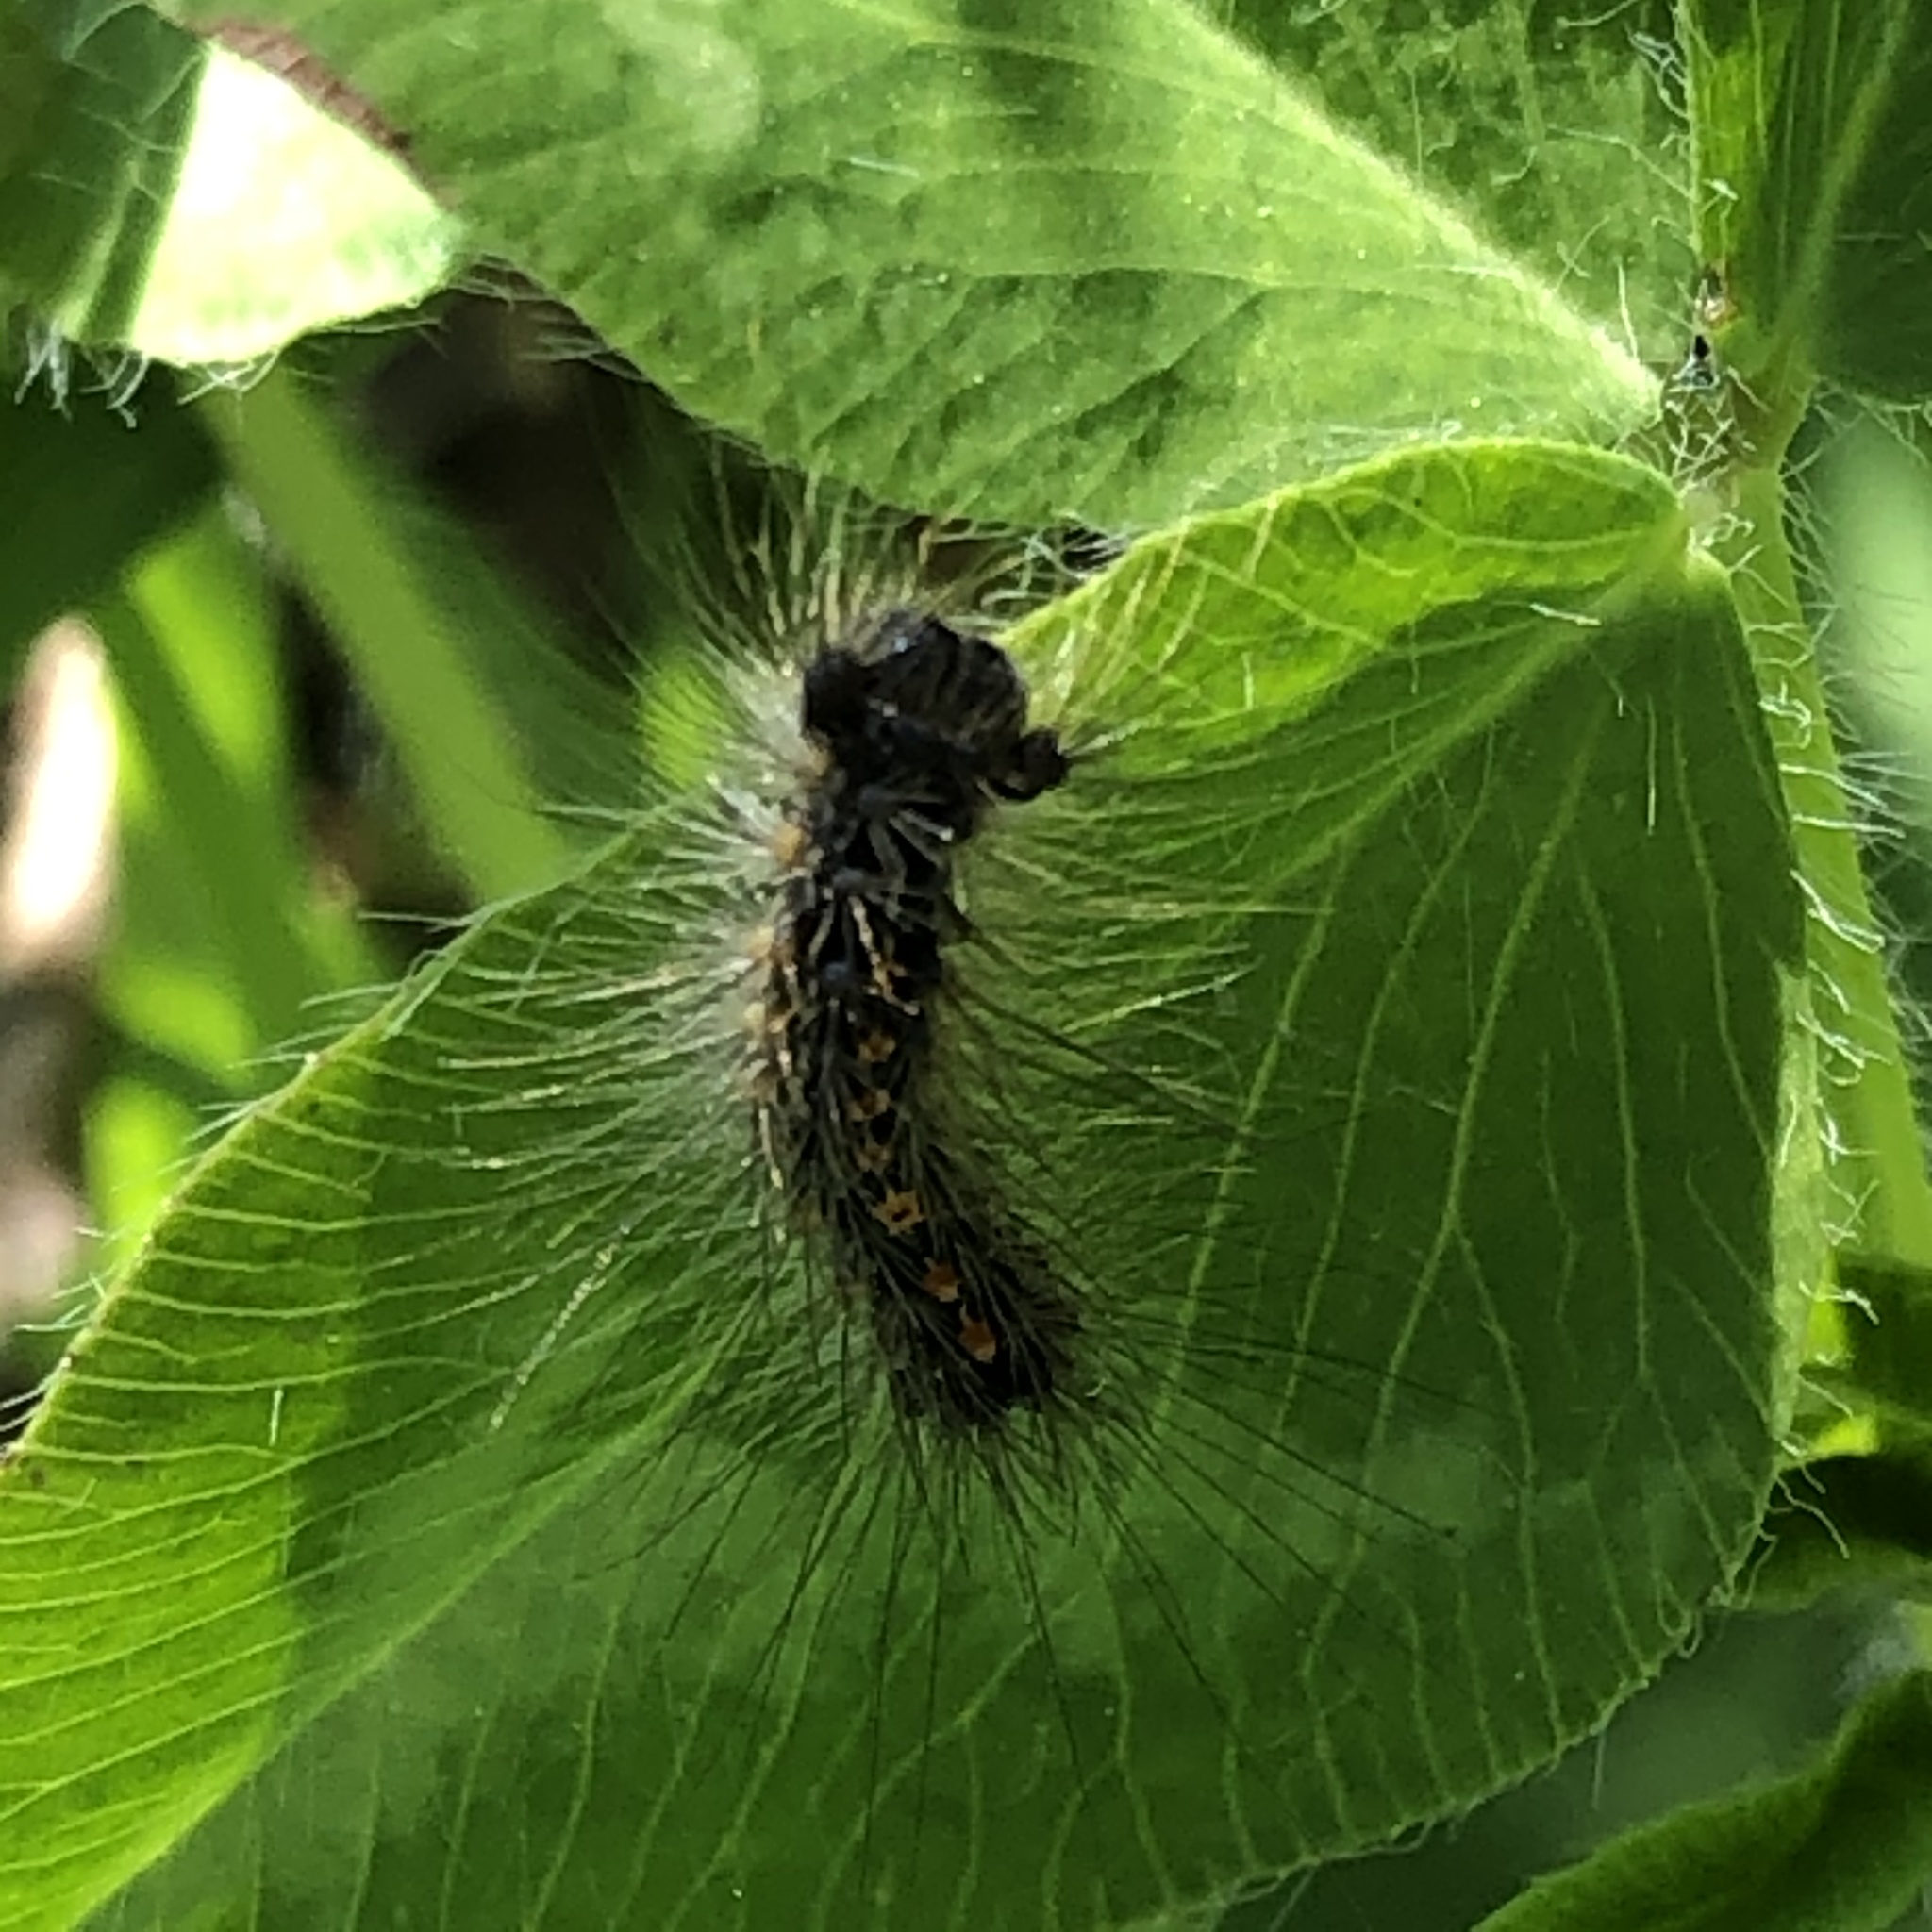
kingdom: Animalia
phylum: Arthropoda
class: Insecta
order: Lepidoptera
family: Erebidae
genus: Lymantria
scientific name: Lymantria dispar
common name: Gypsy moth
